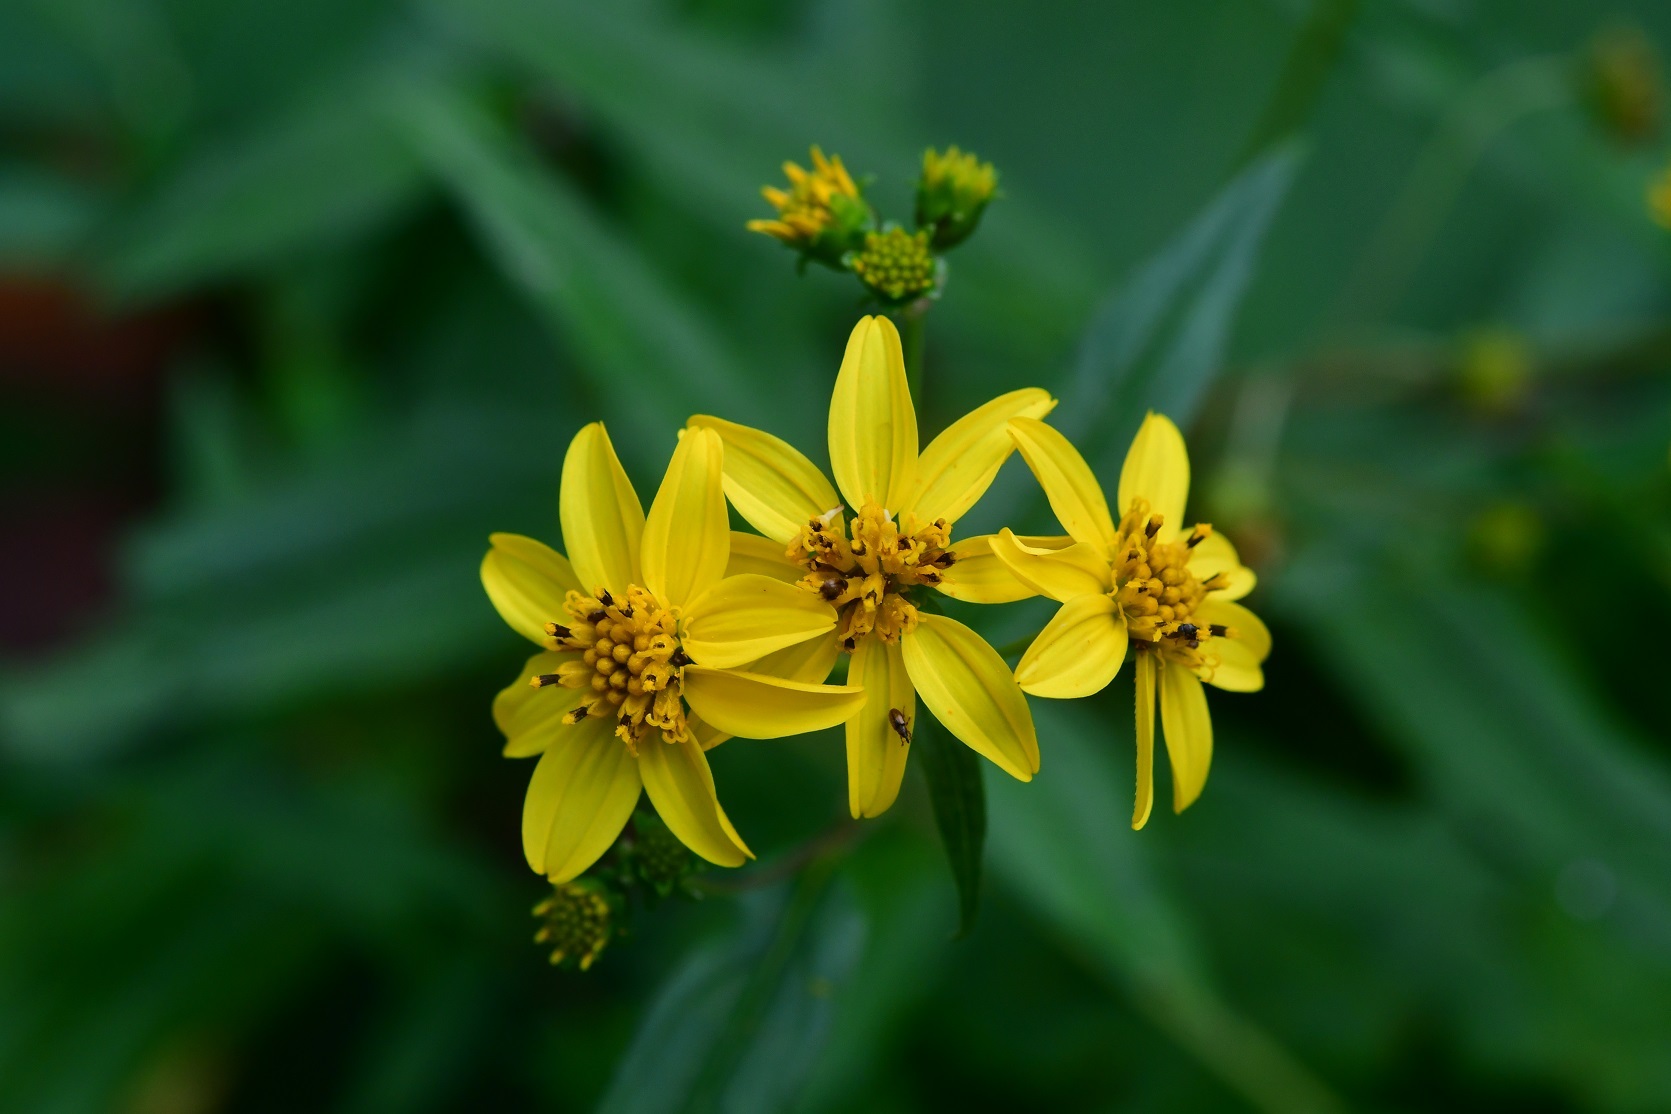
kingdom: Plantae
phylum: Tracheophyta
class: Magnoliopsida
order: Asterales
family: Asteraceae
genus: Perymenium
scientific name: Perymenium ghiesbreghtii
